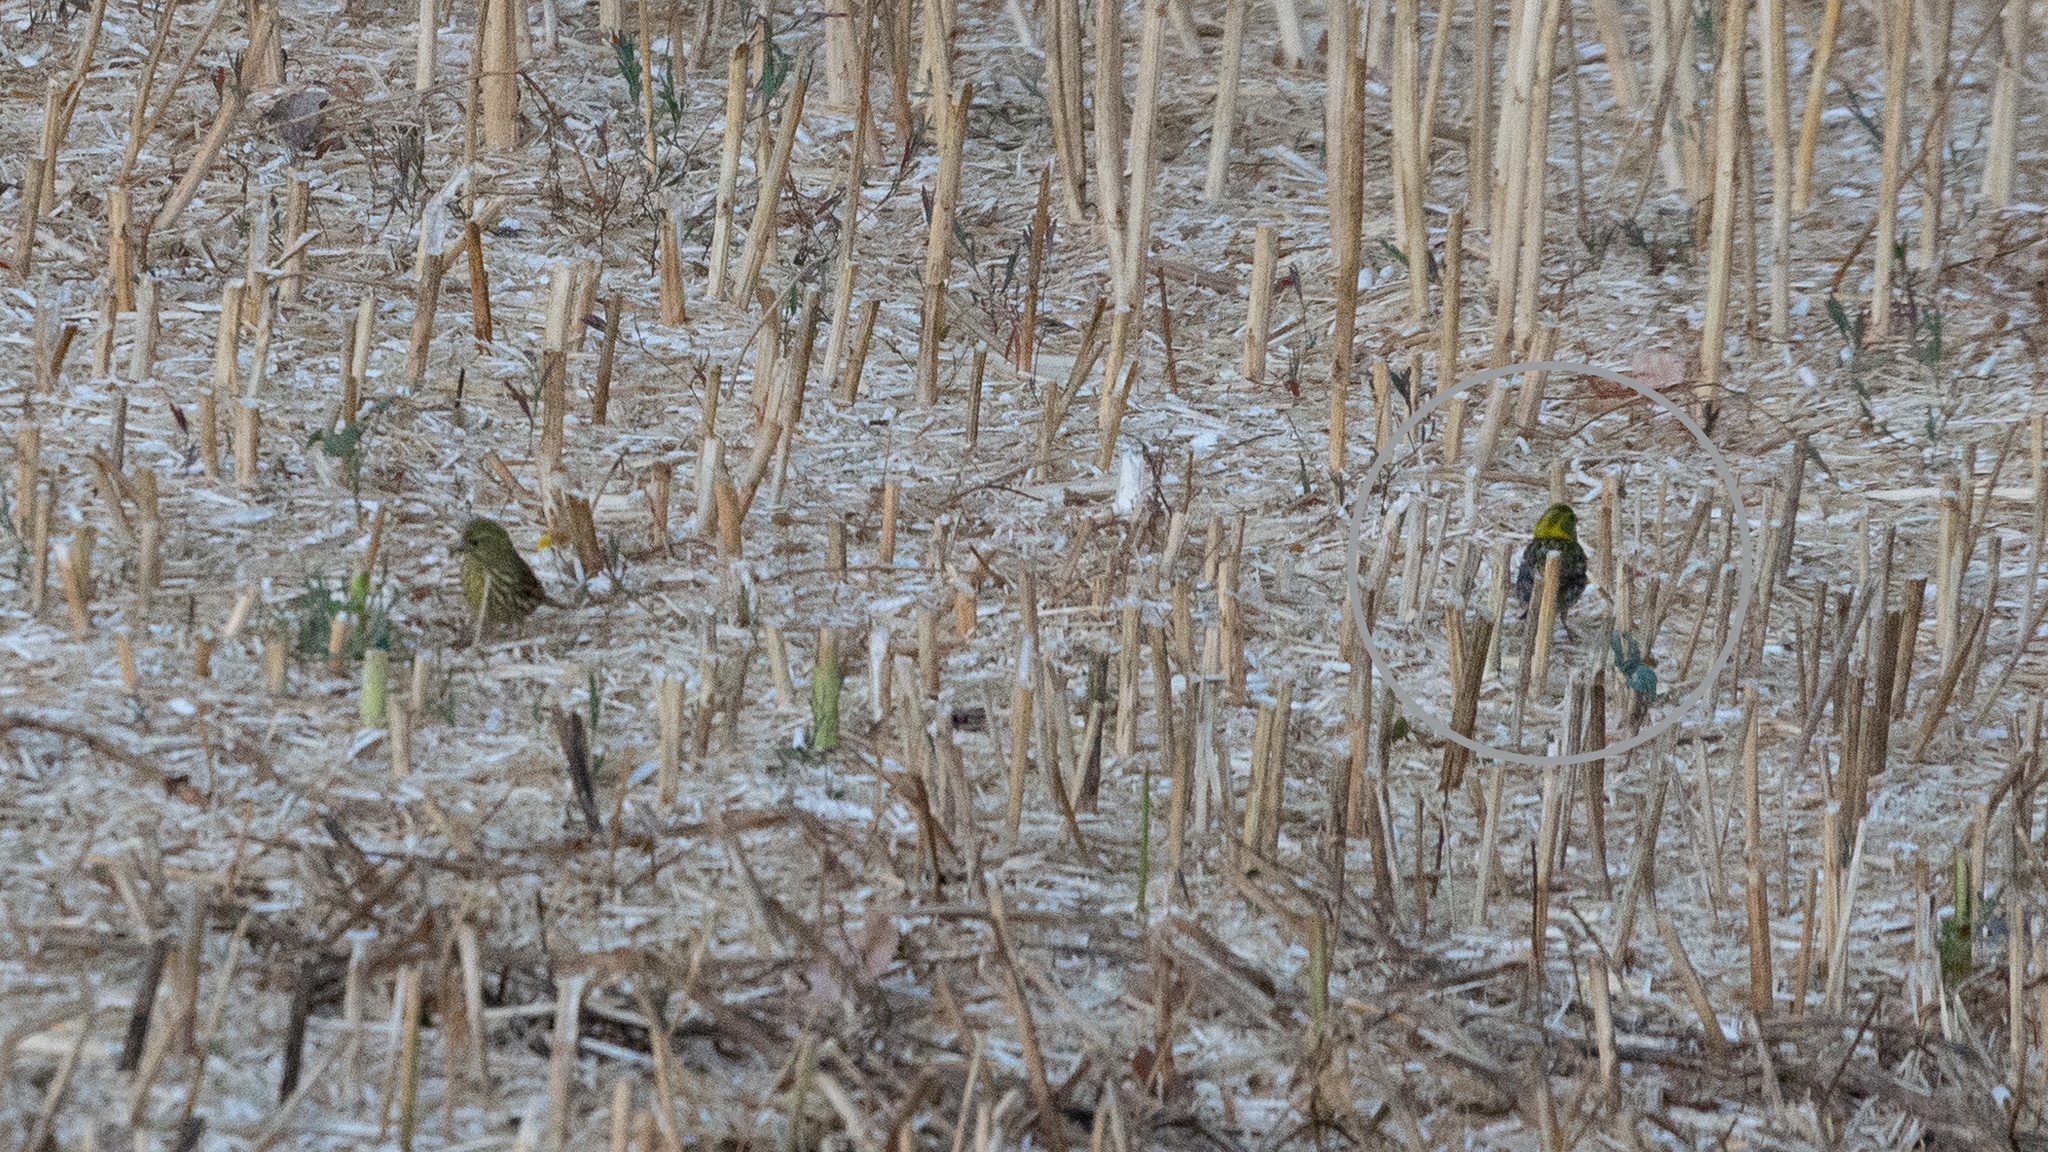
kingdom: Animalia
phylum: Chordata
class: Aves
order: Passeriformes
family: Fringillidae
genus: Serinus
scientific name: Serinus serinus
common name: European serin
